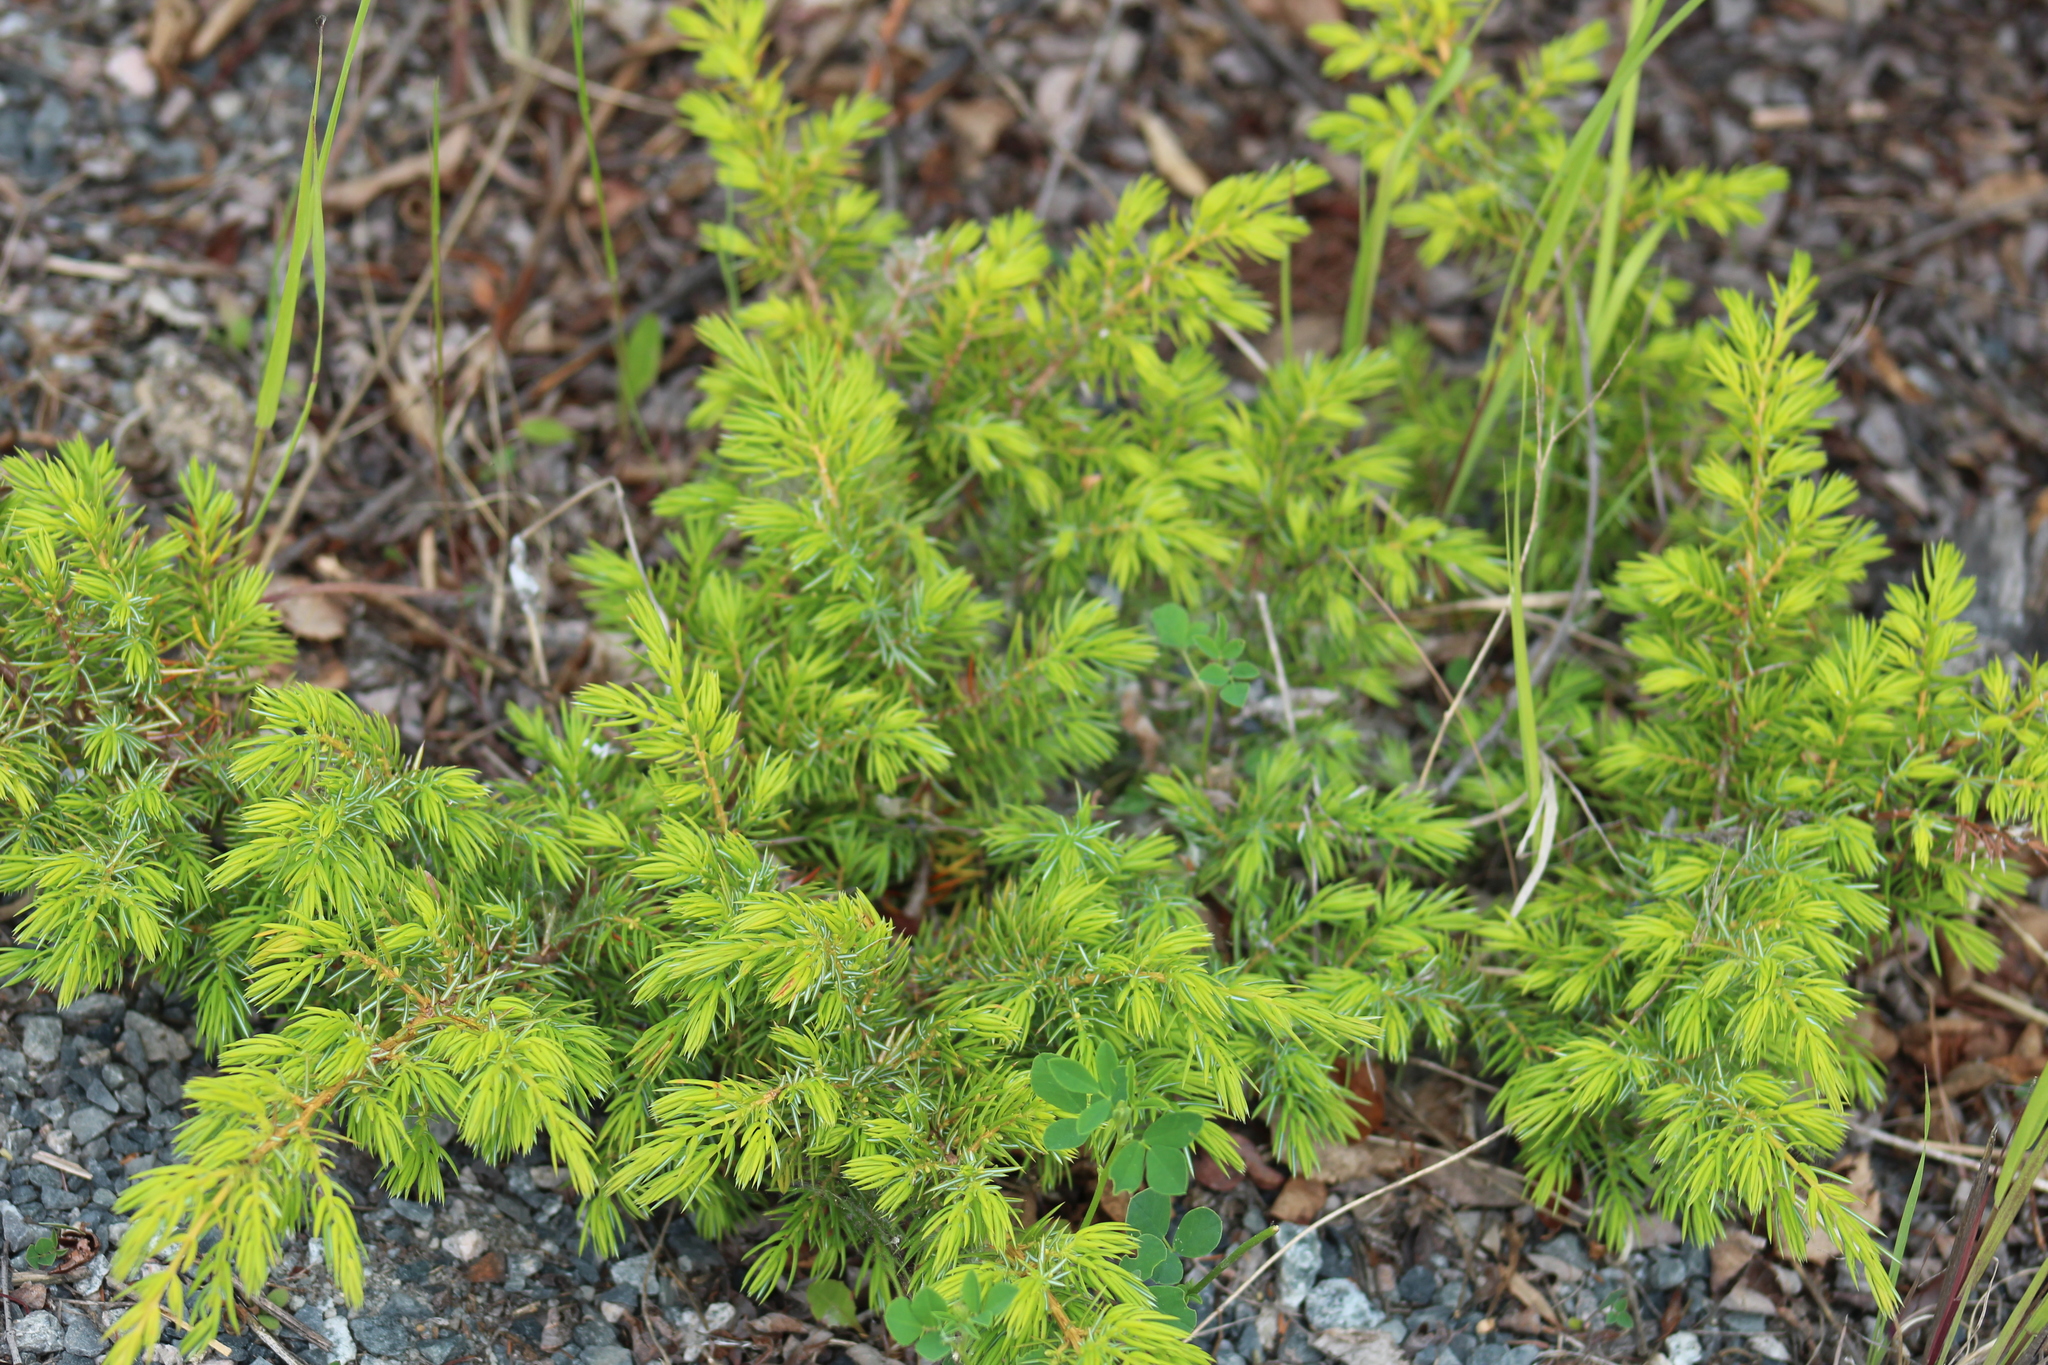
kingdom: Plantae
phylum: Tracheophyta
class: Pinopsida
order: Pinales
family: Cupressaceae
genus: Juniperus
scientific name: Juniperus communis
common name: Common juniper
